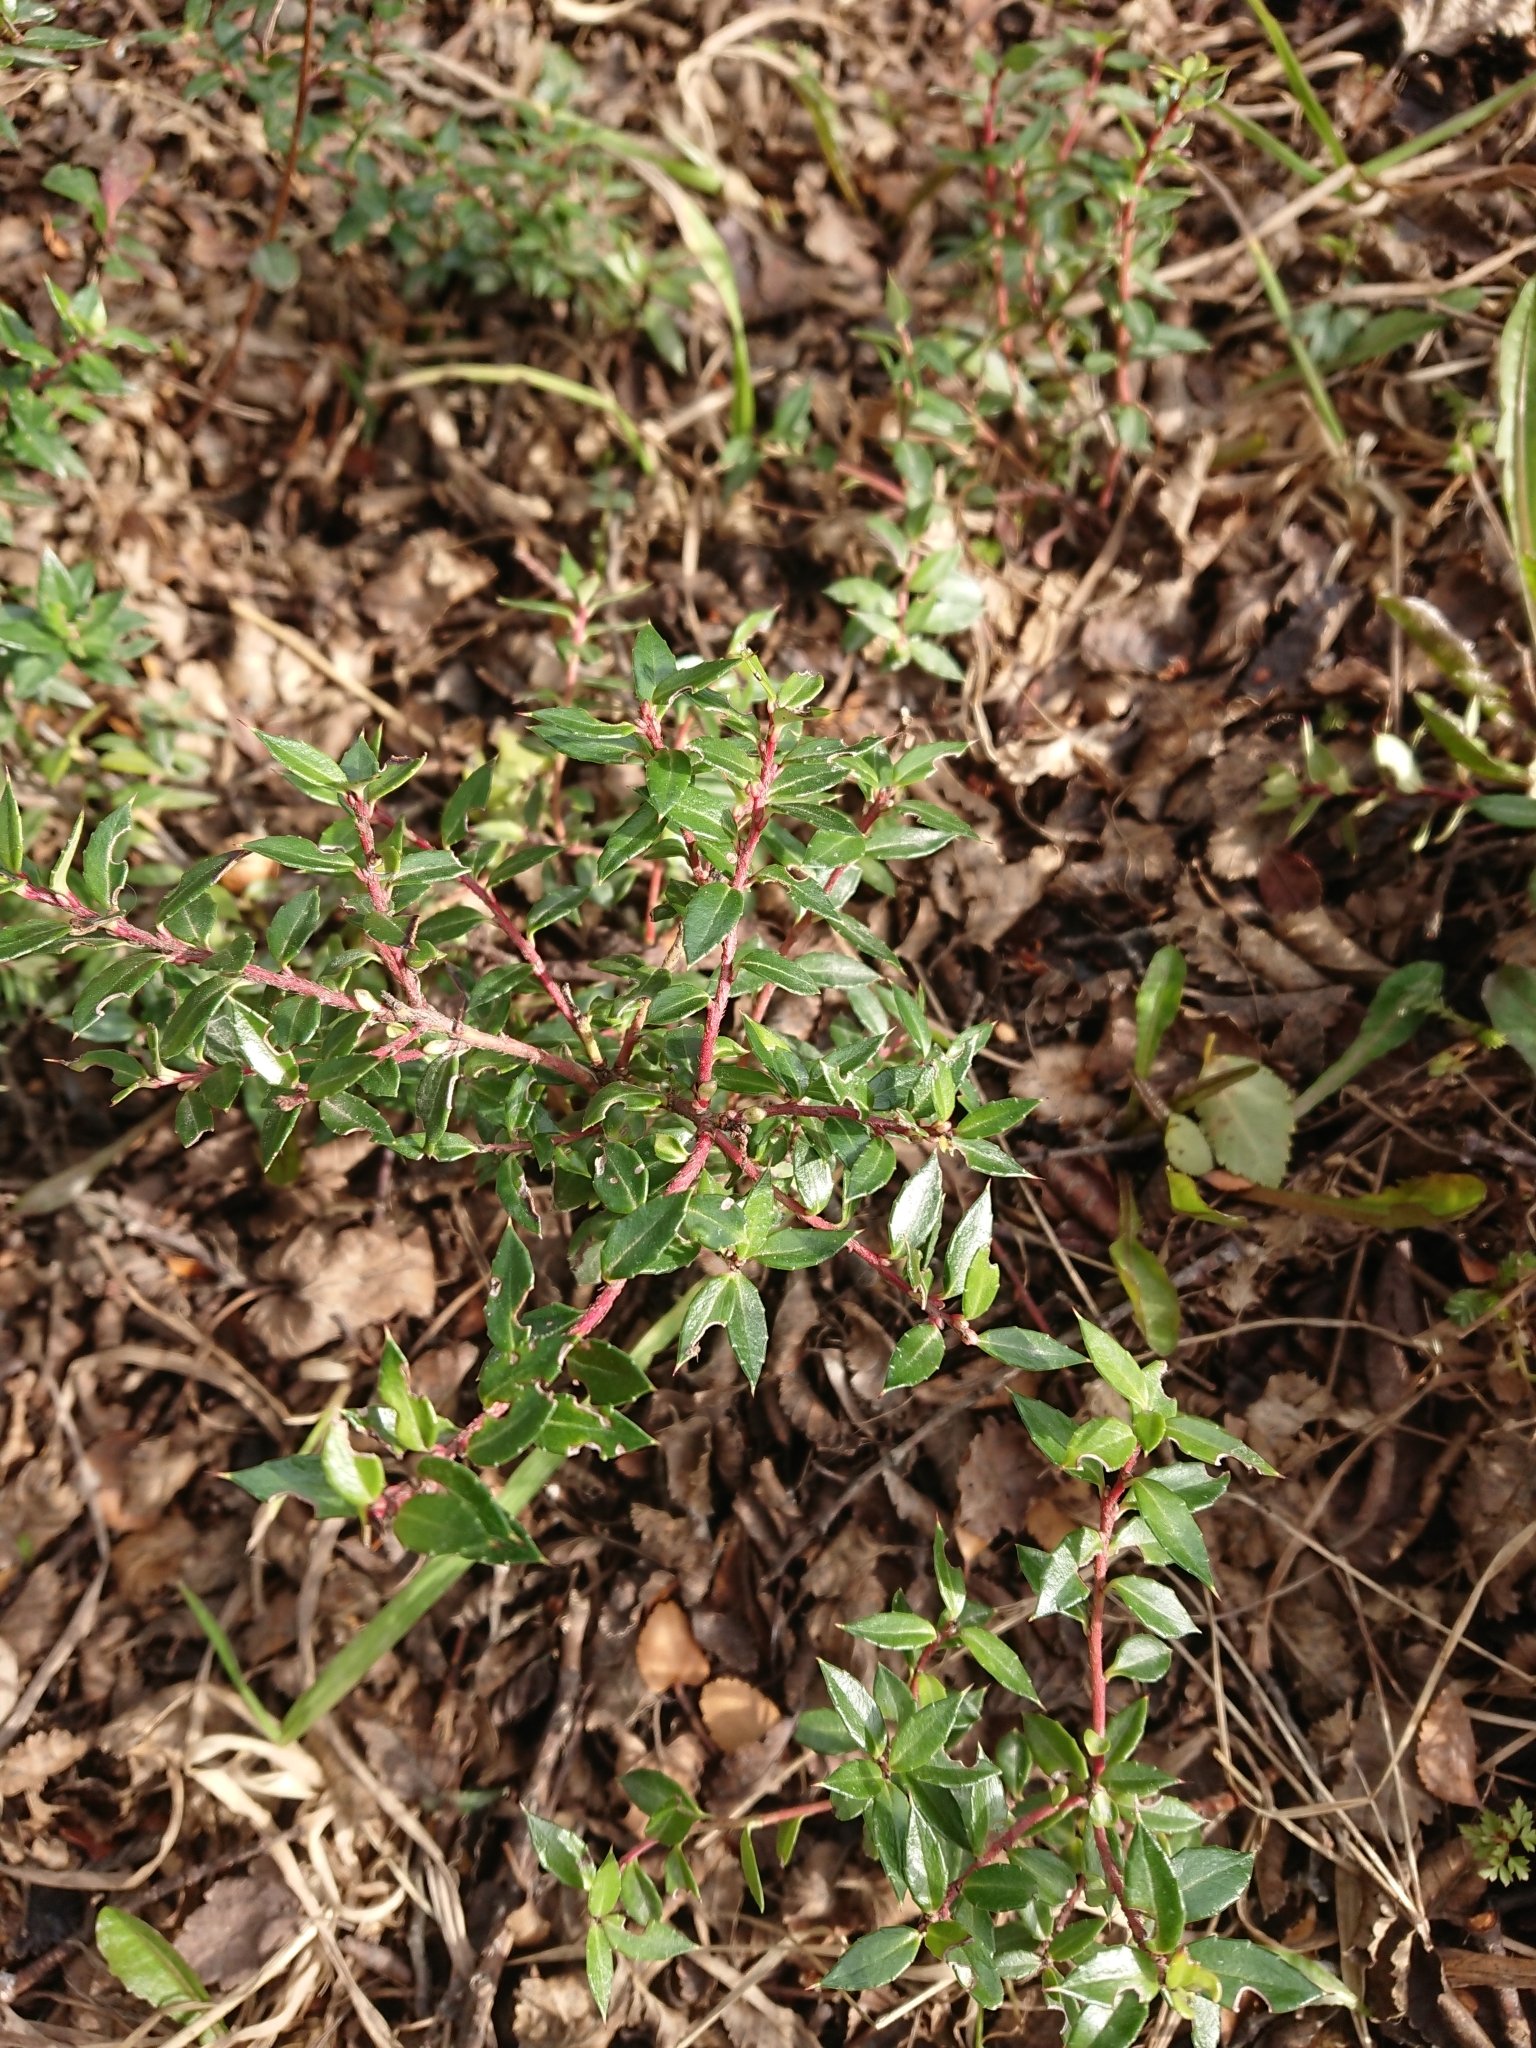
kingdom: Plantae
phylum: Tracheophyta
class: Magnoliopsida
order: Ericales
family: Ericaceae
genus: Gaultheria
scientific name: Gaultheria mucronata
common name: Prickly heath
